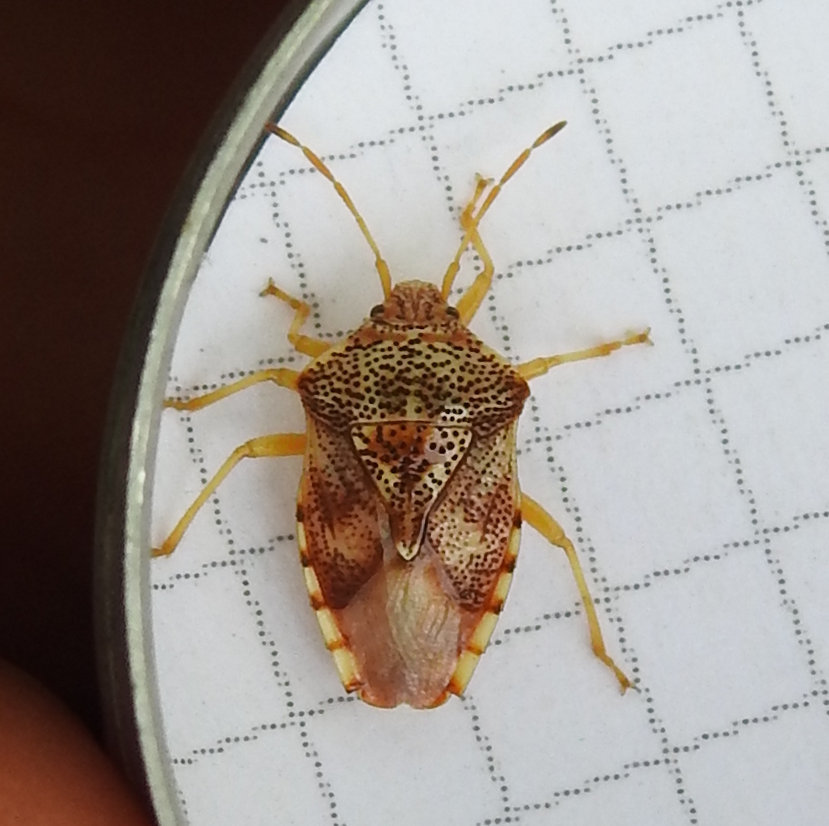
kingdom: Animalia
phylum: Arthropoda
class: Insecta
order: Hemiptera
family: Acanthosomatidae
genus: Elasmucha
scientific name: Elasmucha lateralis
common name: Shield bug
